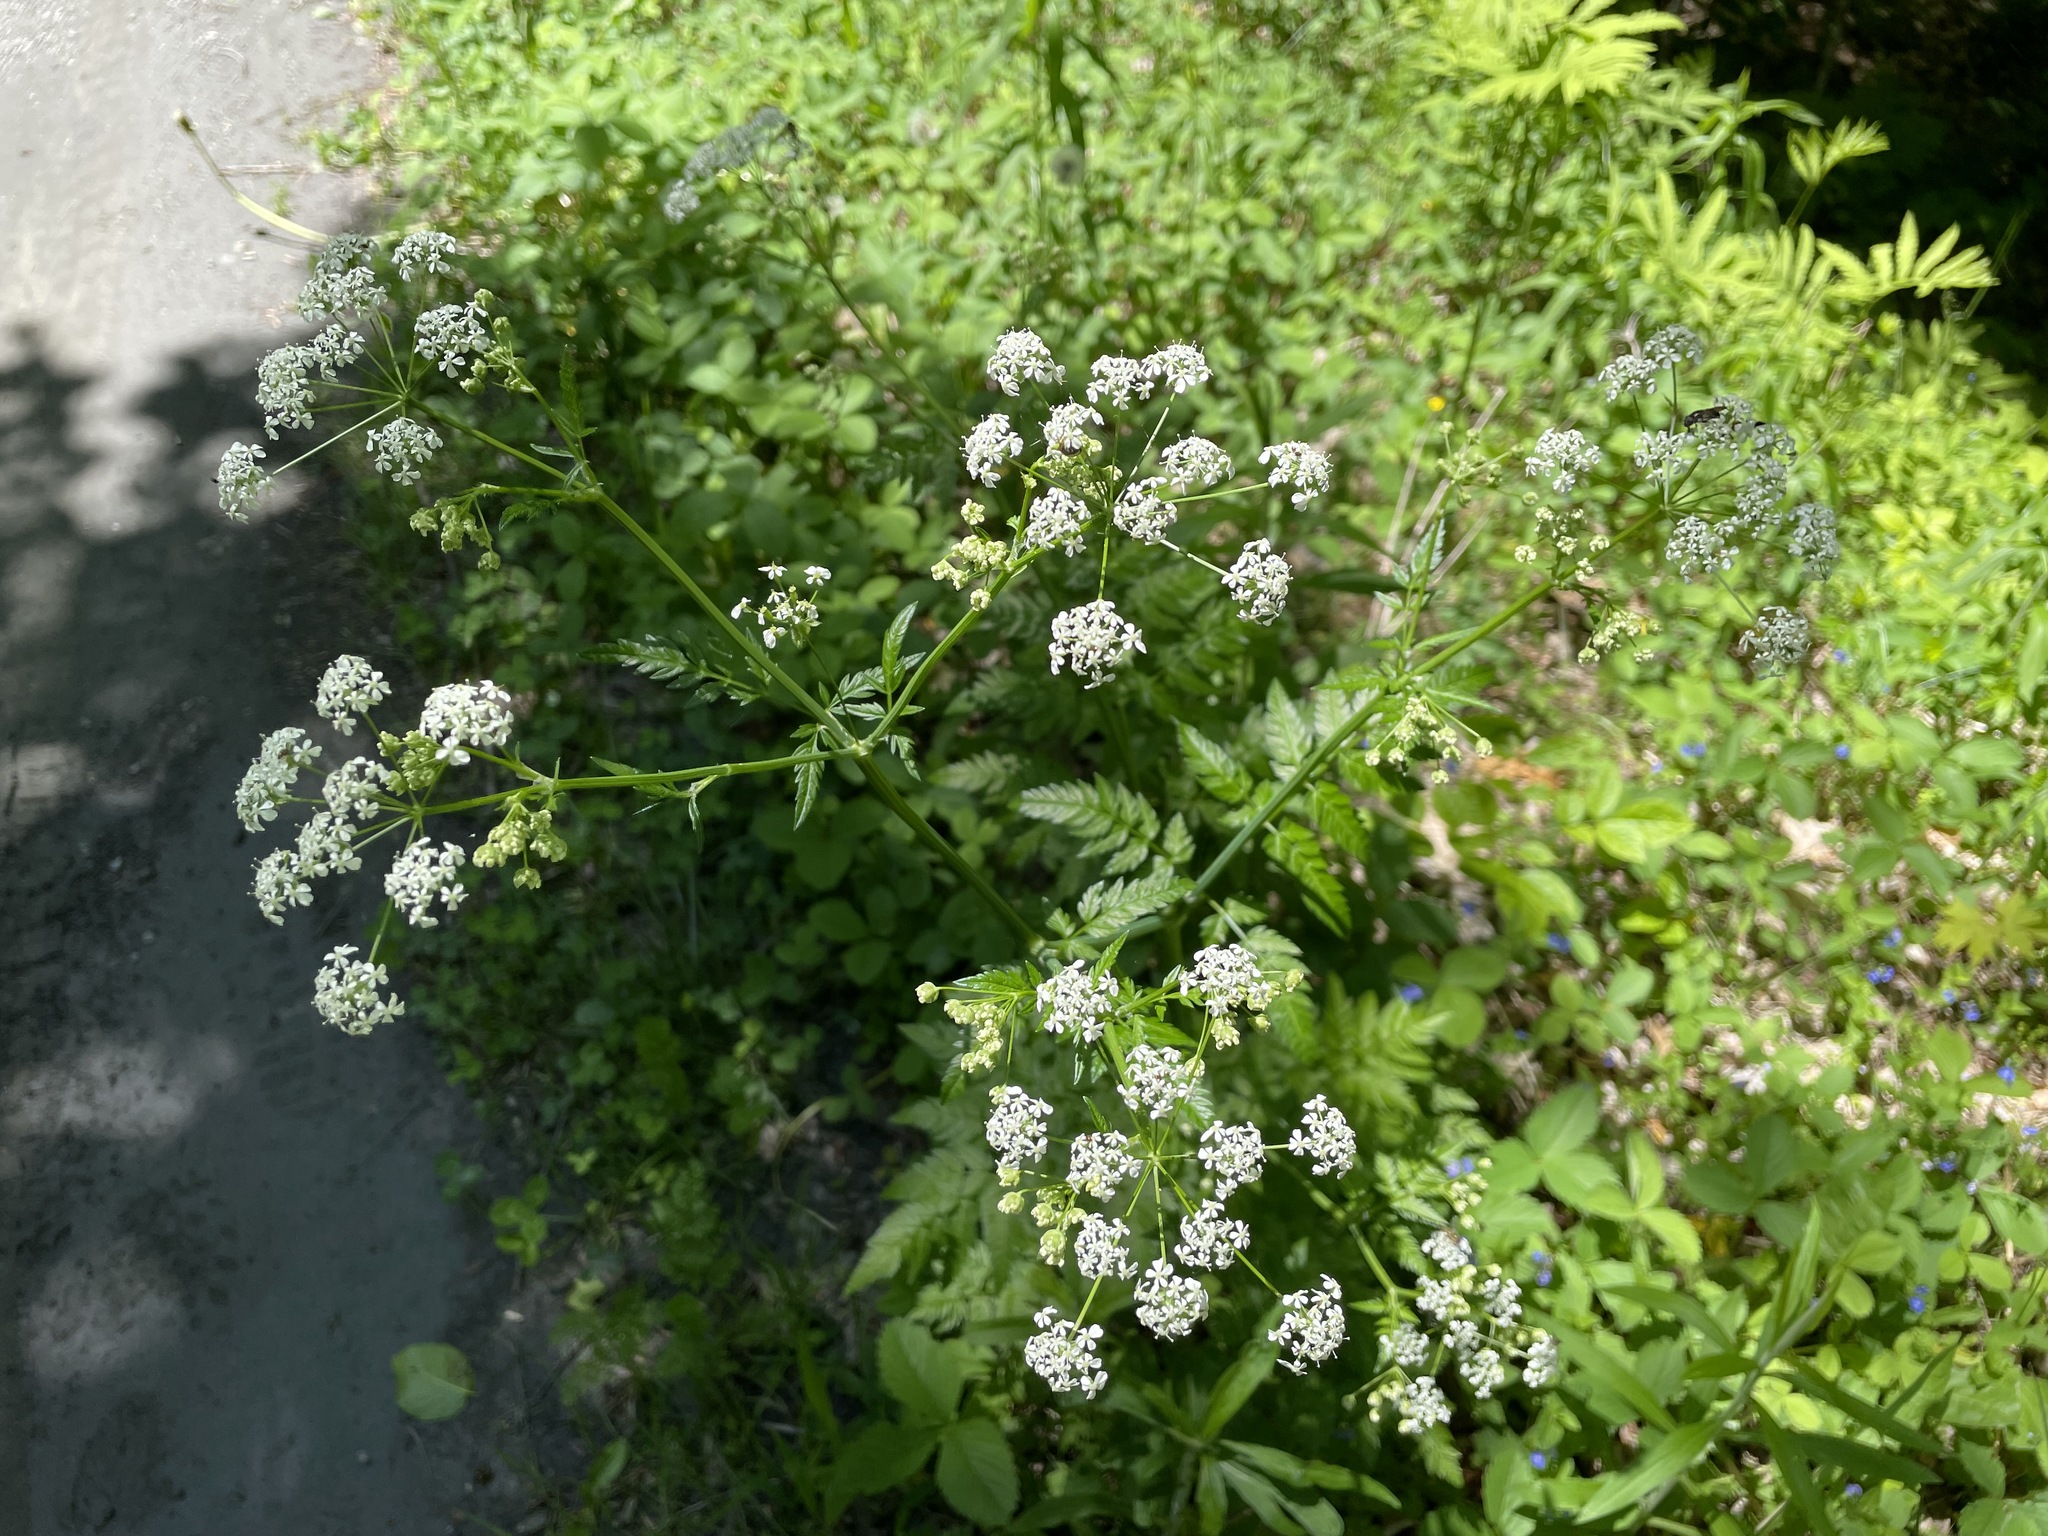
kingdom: Plantae
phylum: Tracheophyta
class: Magnoliopsida
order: Apiales
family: Apiaceae
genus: Anthriscus
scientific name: Anthriscus sylvestris
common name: Cow parsley
